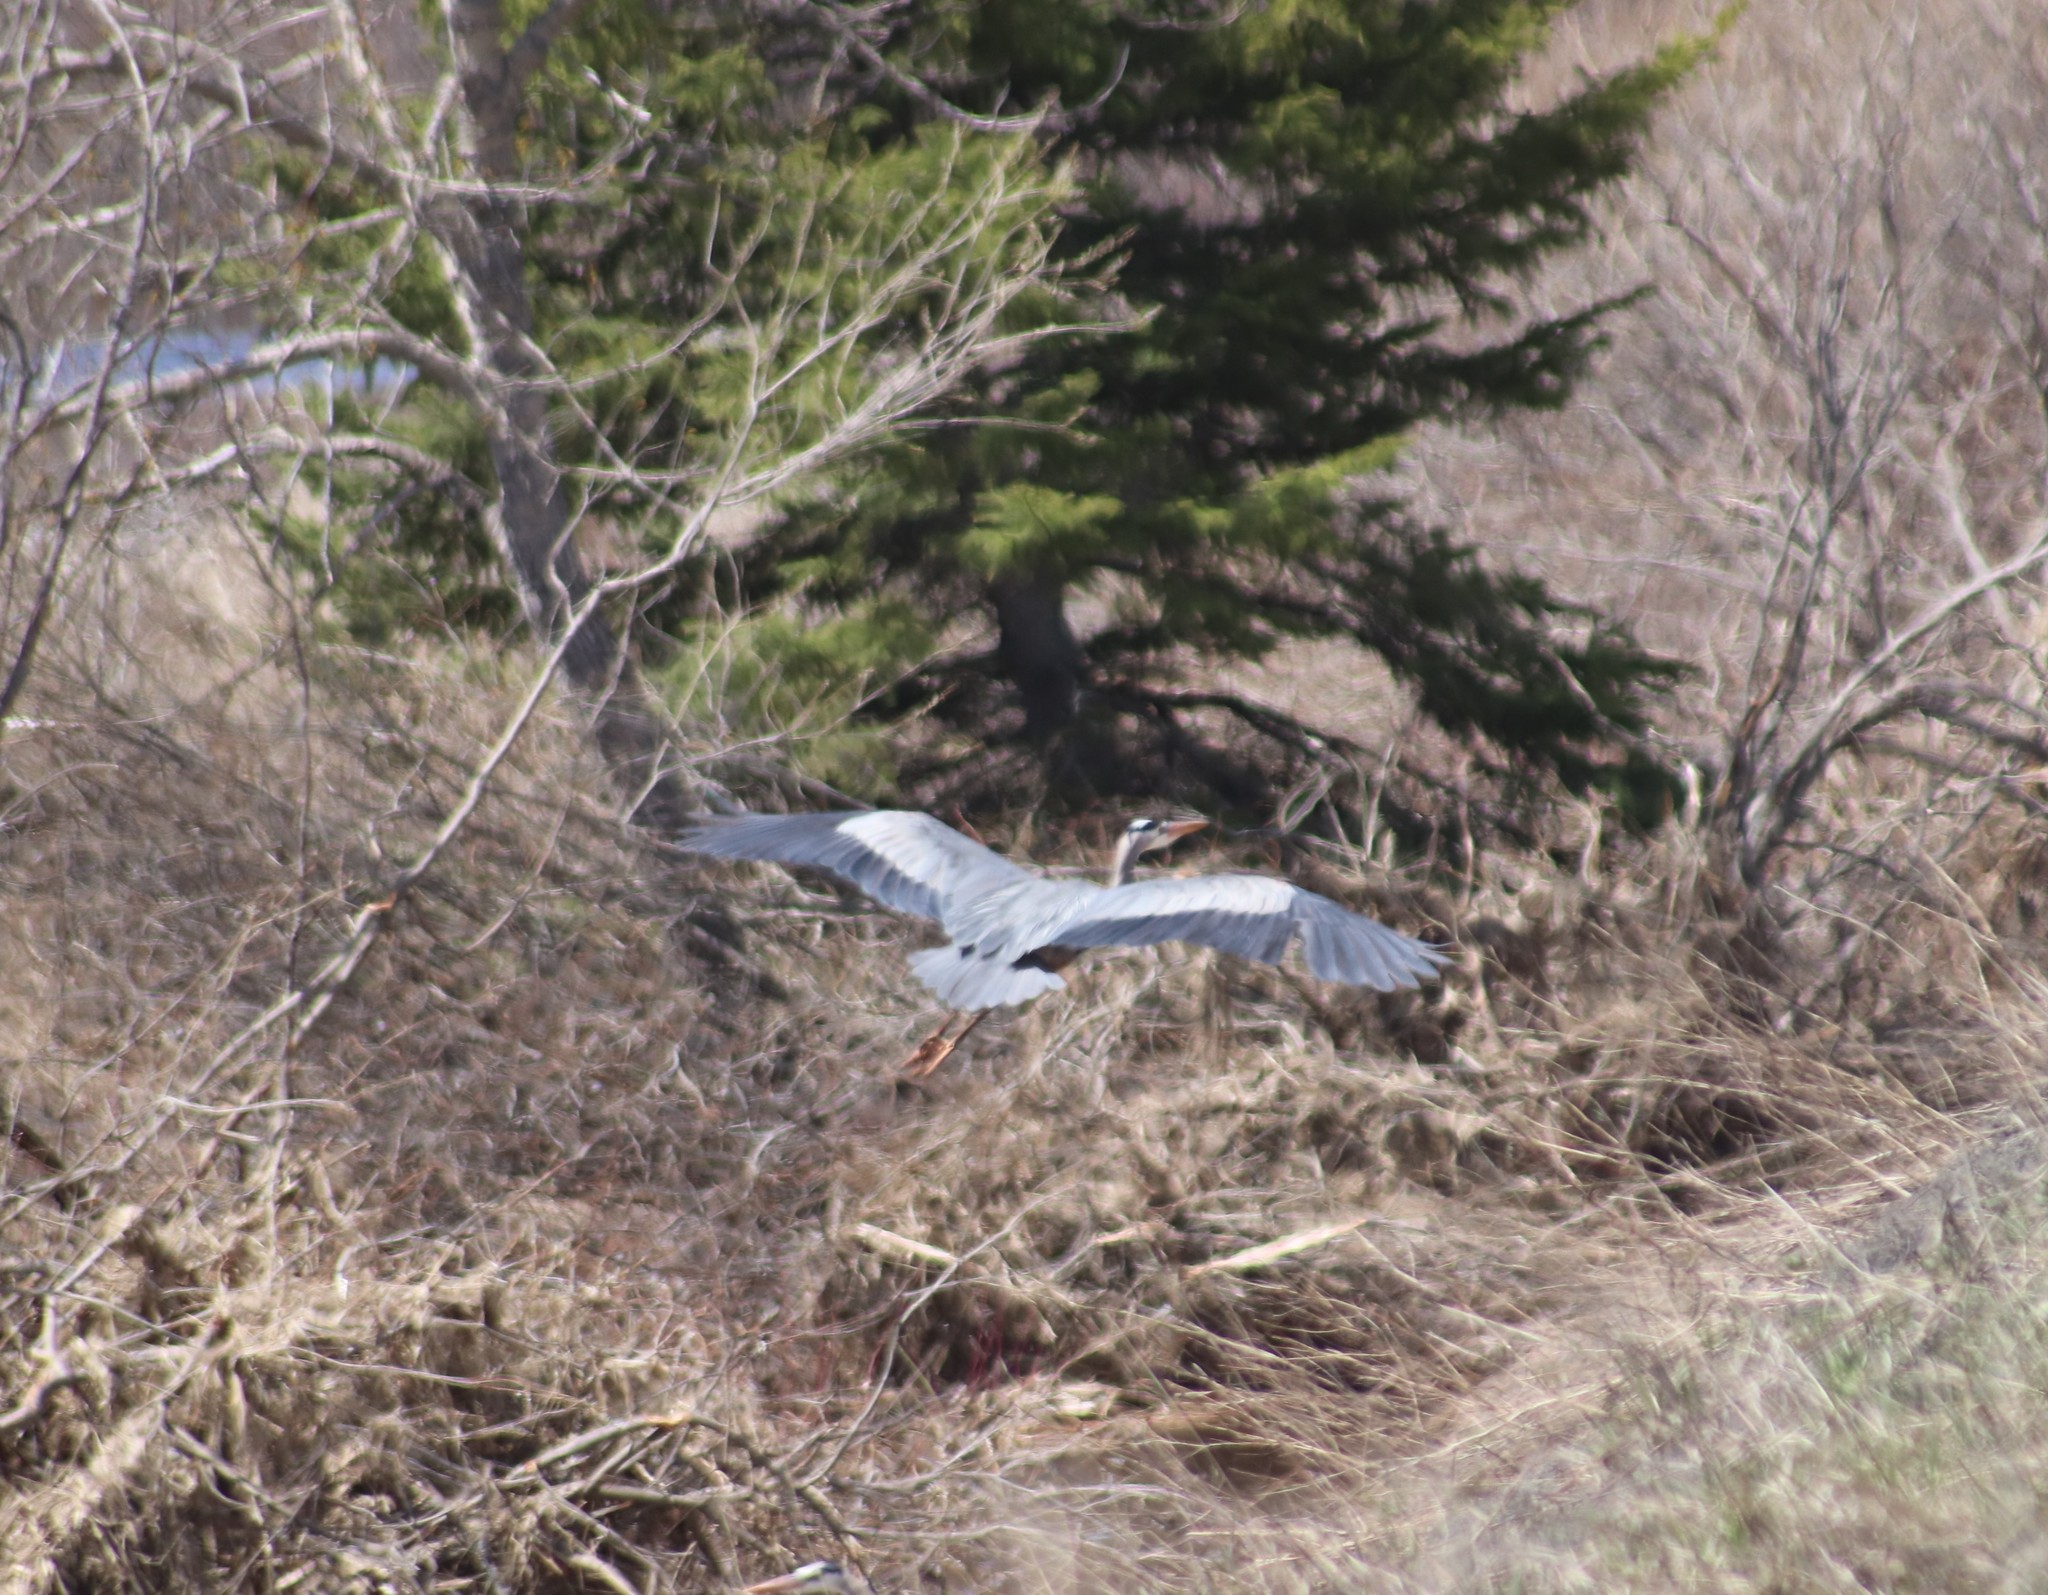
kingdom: Animalia
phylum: Chordata
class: Aves
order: Pelecaniformes
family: Ardeidae
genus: Ardea
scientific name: Ardea herodias
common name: Great blue heron
